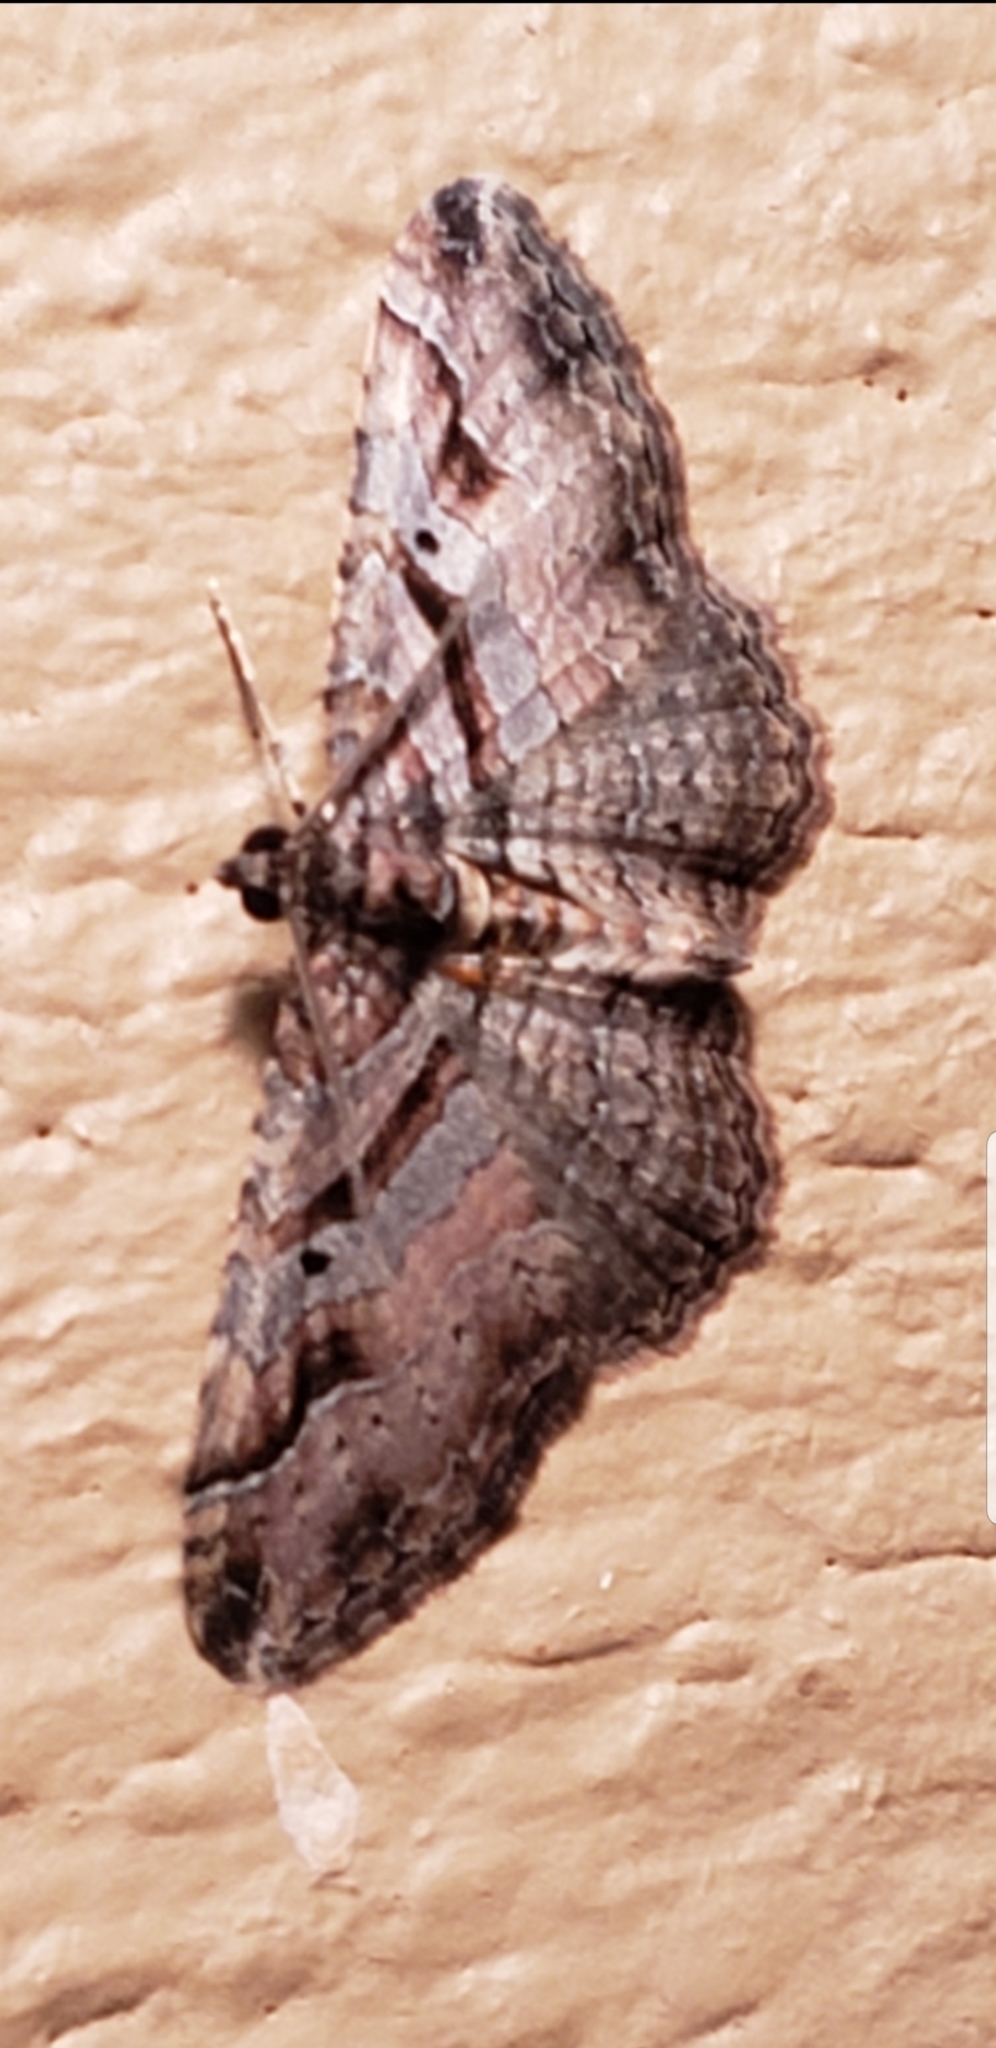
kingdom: Animalia
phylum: Arthropoda
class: Insecta
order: Lepidoptera
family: Geometridae
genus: Costaconvexa
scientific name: Costaconvexa centrostrigaria
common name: Bent-line carpet
